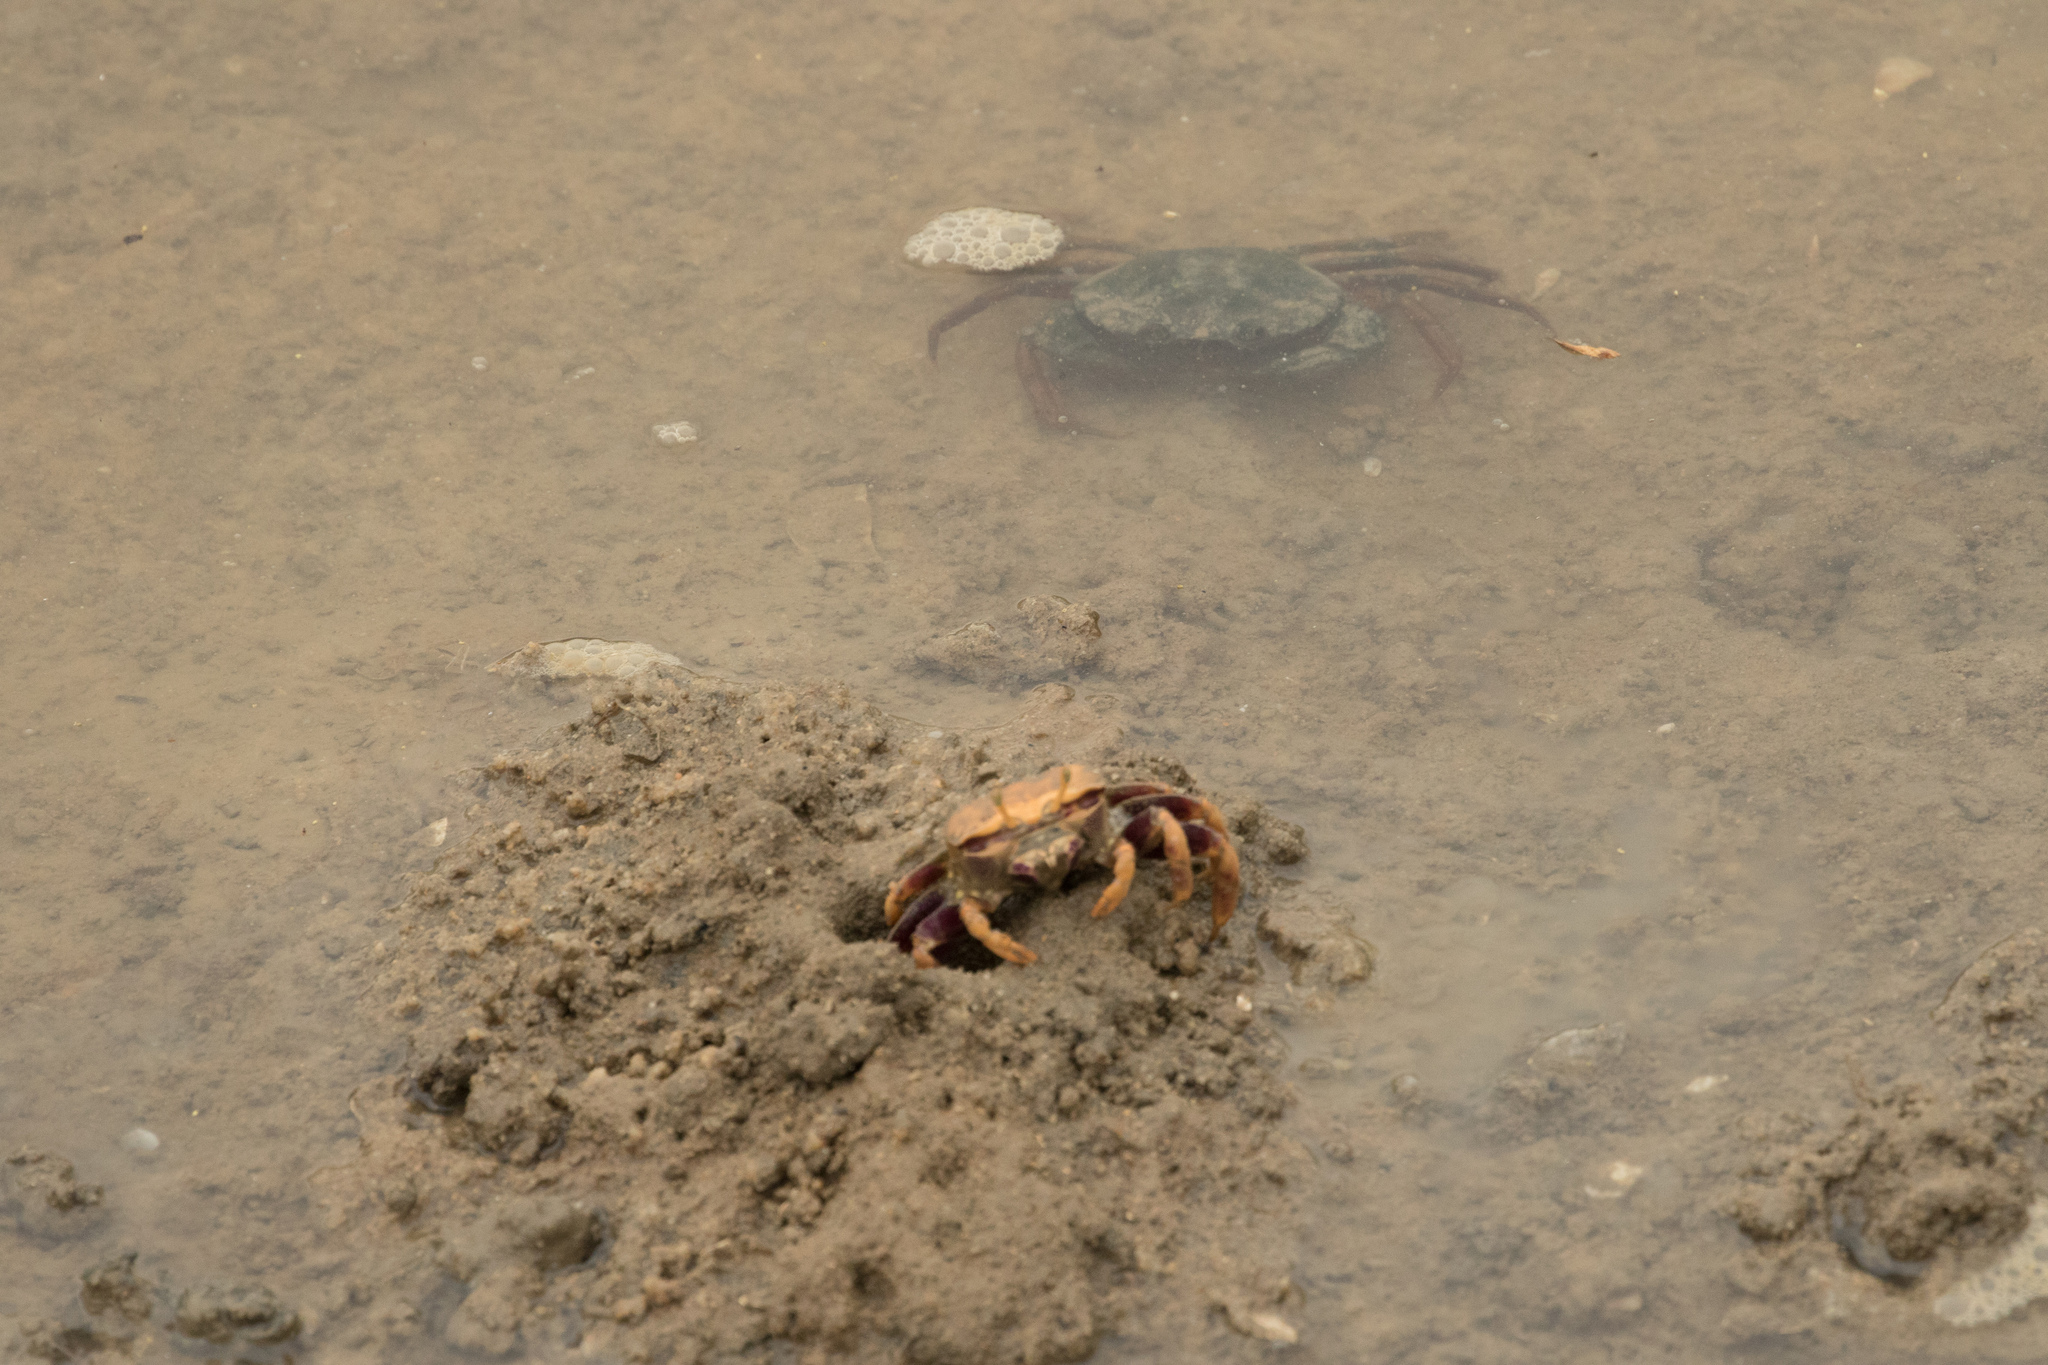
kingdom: Animalia
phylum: Arthropoda
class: Malacostraca
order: Decapoda
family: Carcinidae
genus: Carcinus
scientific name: Carcinus maenas
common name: European green crab
